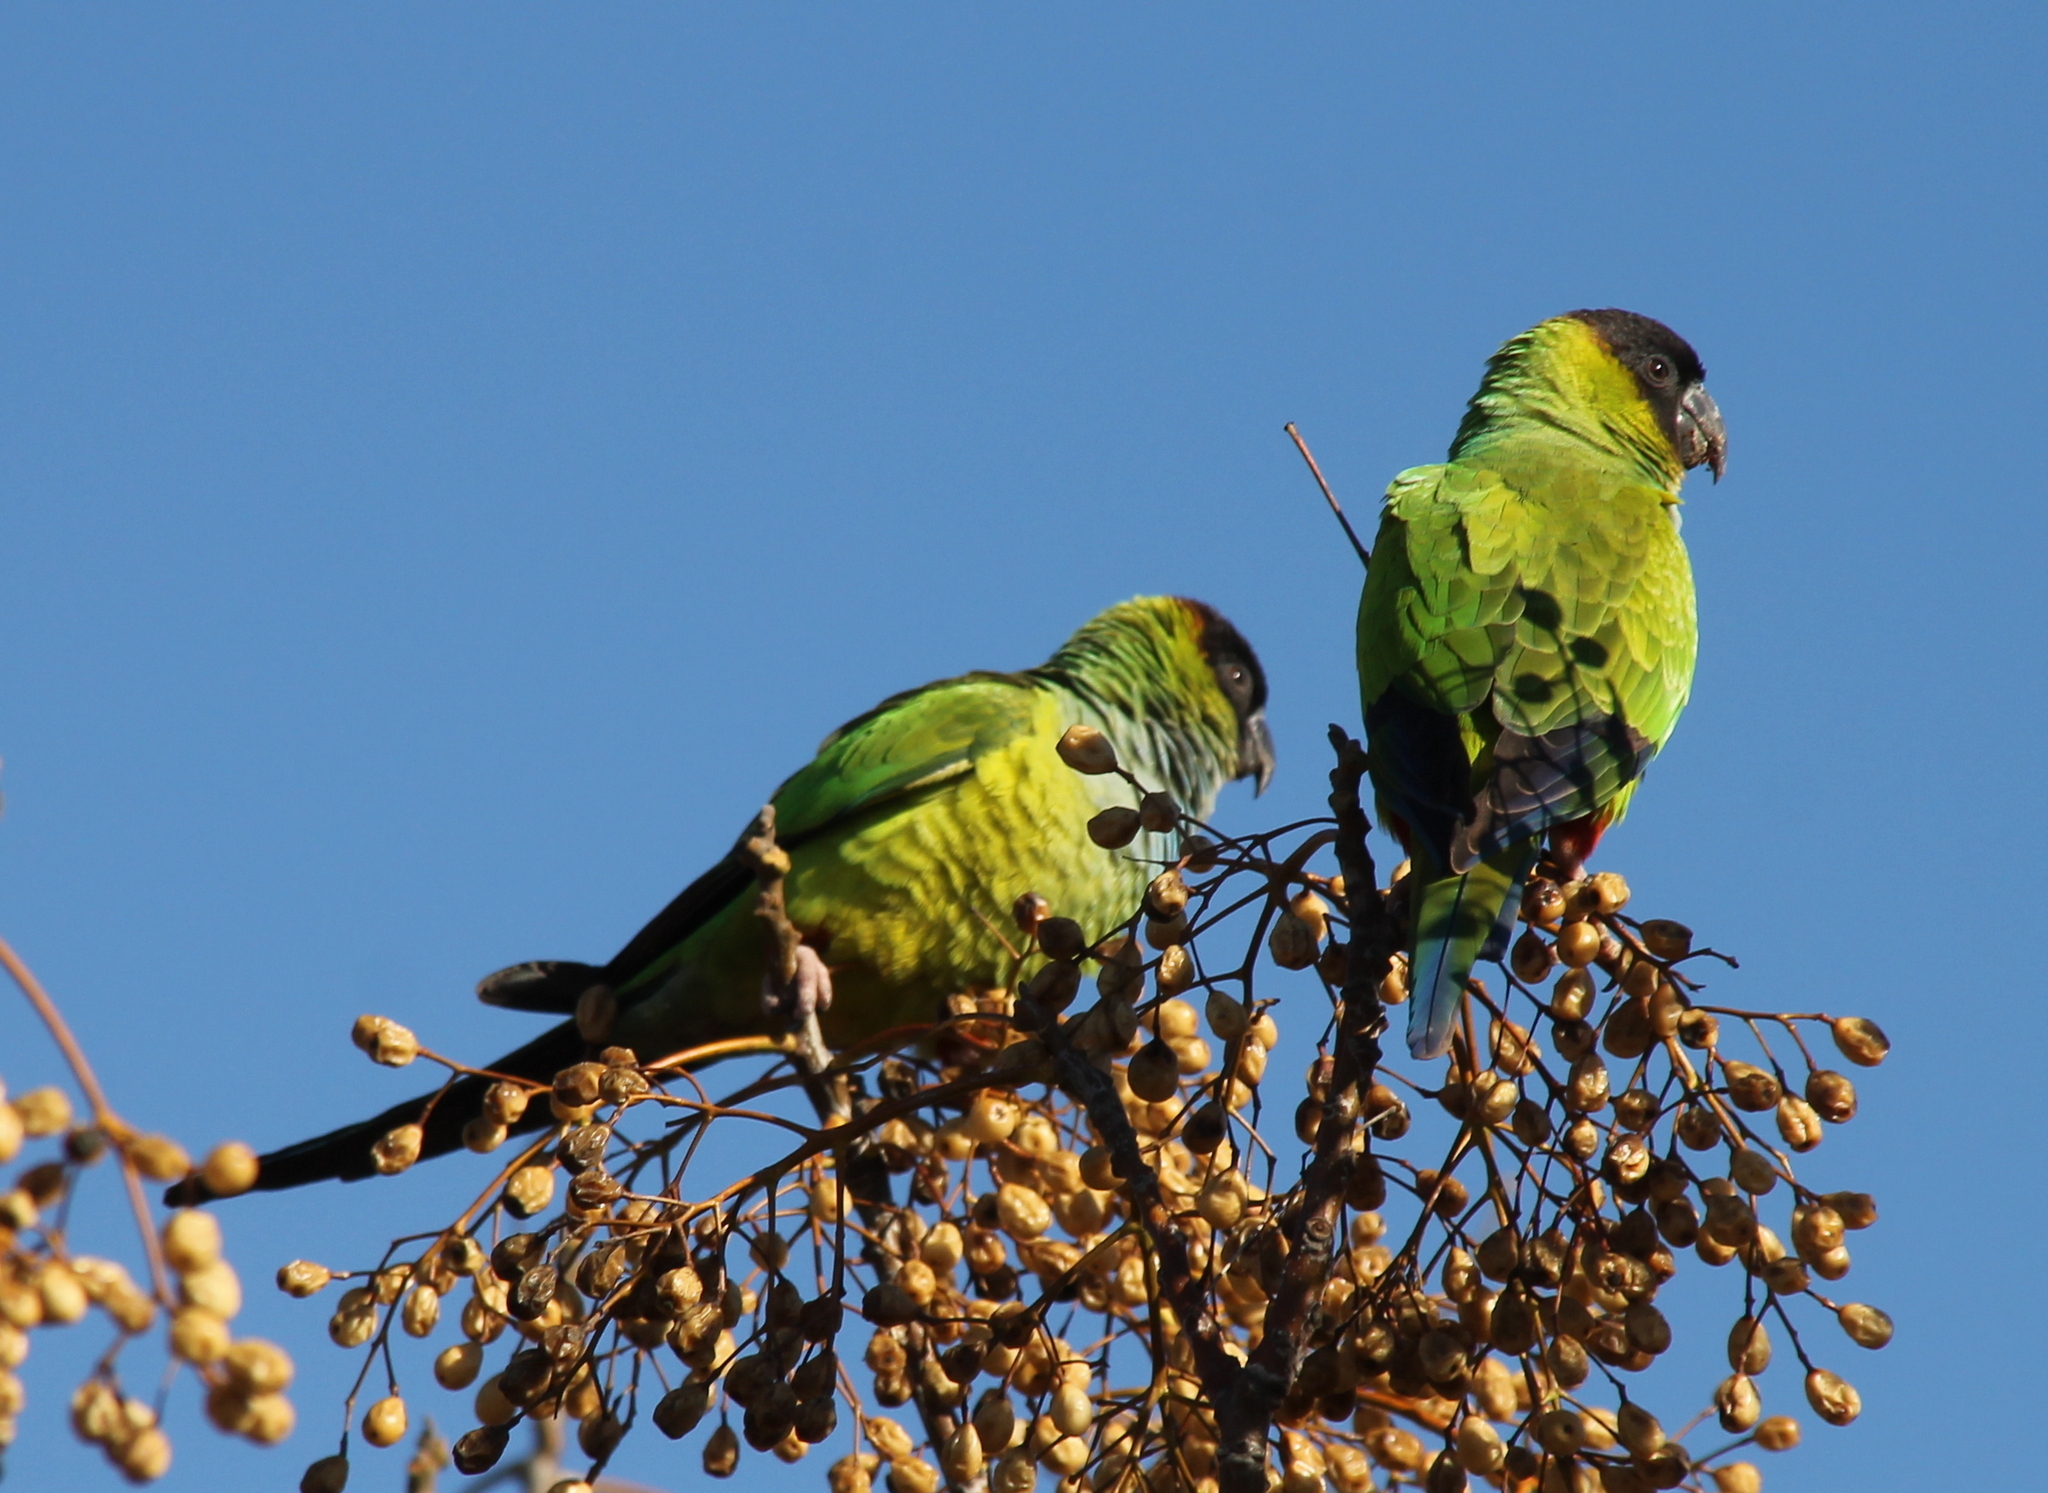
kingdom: Animalia
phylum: Chordata
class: Aves
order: Psittaciformes
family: Psittacidae
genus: Nandayus
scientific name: Nandayus nenday
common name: Nanday parakeet
